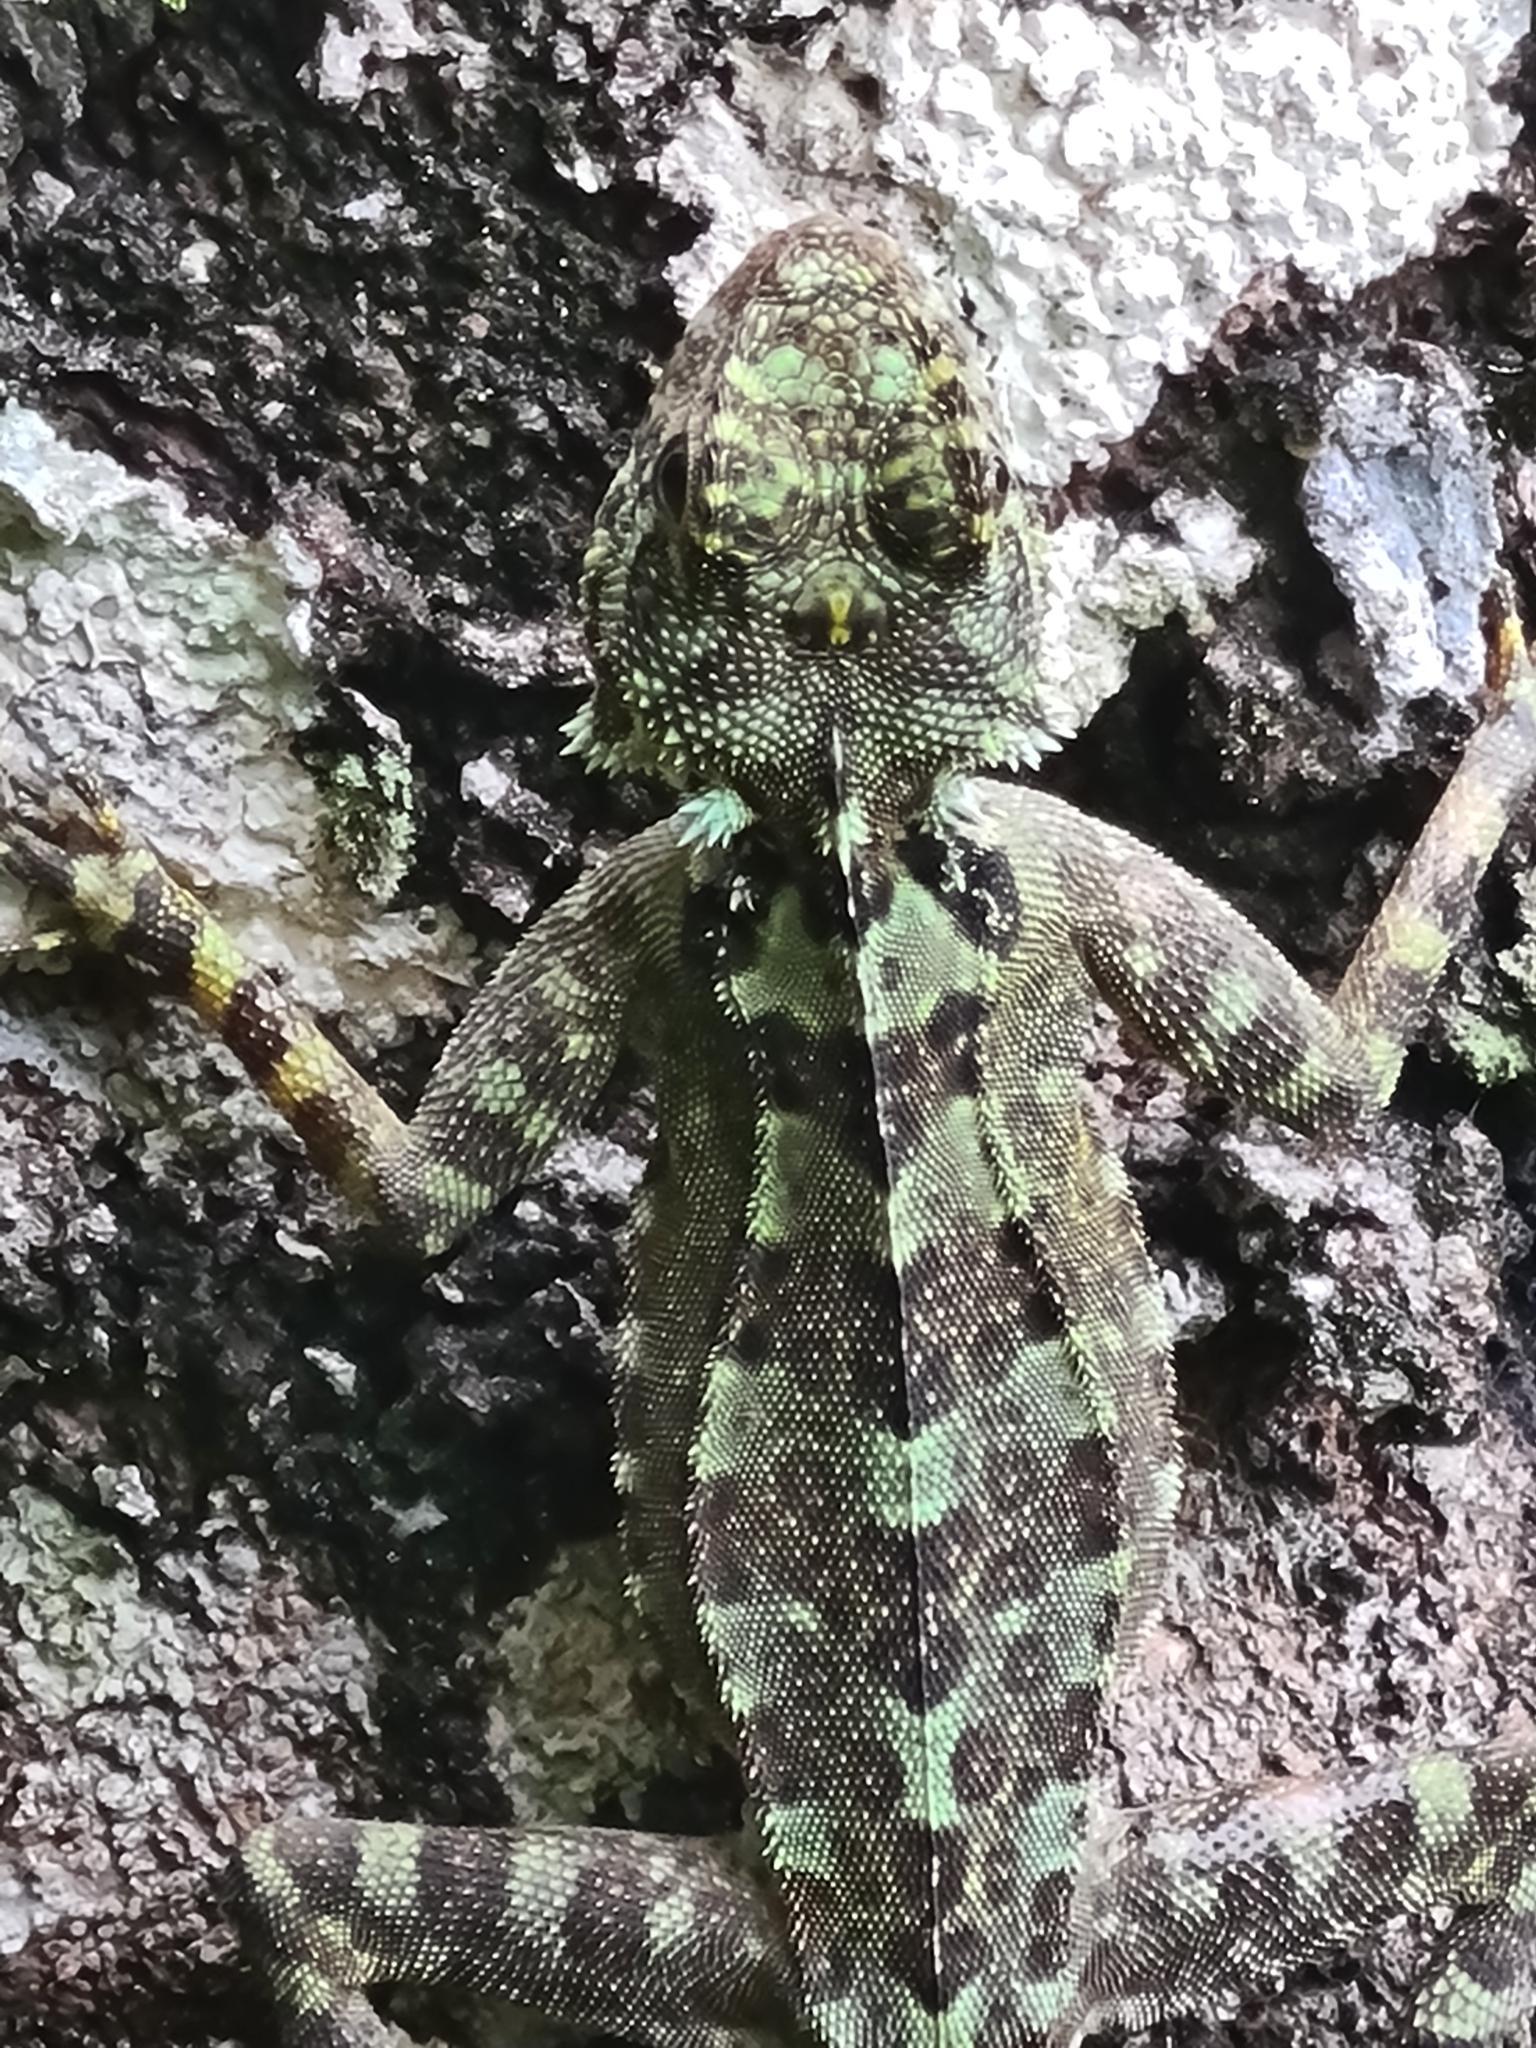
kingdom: Animalia
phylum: Chordata
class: Squamata
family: Tropiduridae
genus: Plica
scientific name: Plica plica
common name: Tree runner
